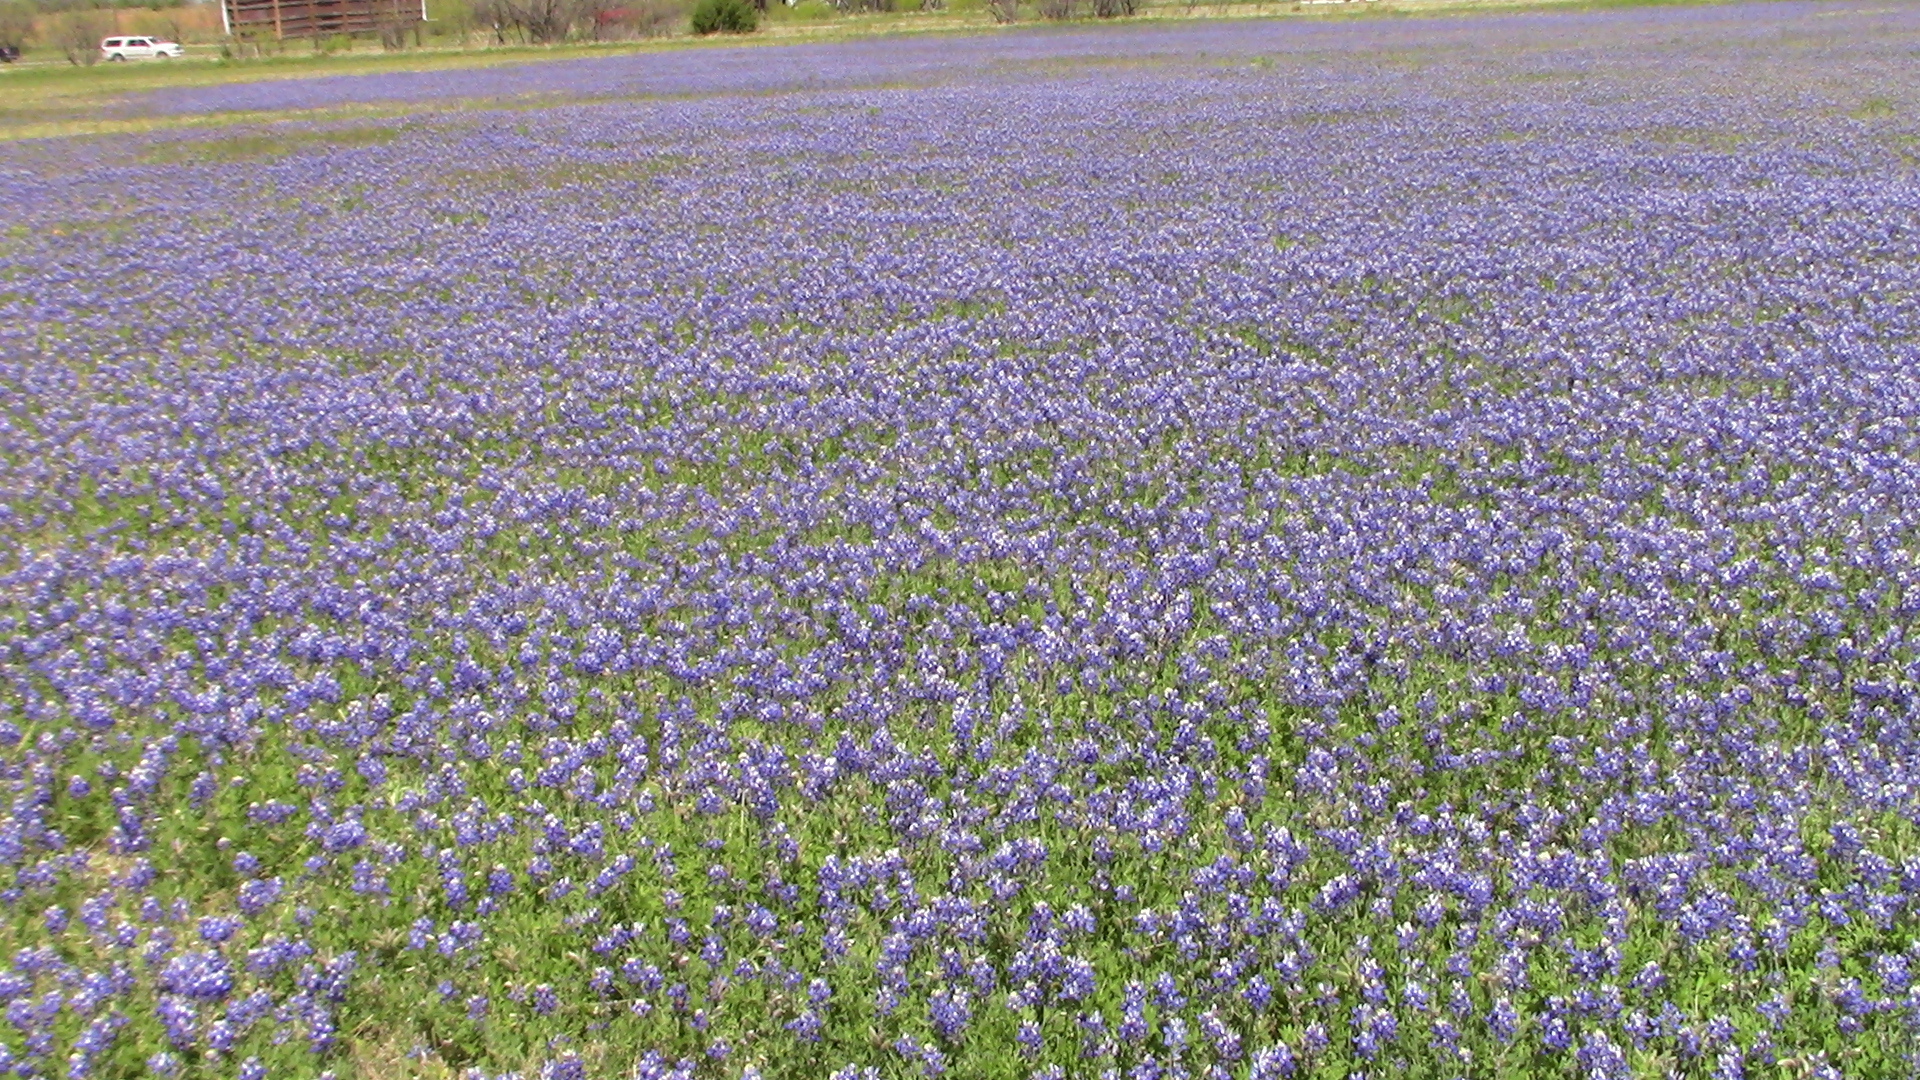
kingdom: Plantae
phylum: Tracheophyta
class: Magnoliopsida
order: Fabales
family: Fabaceae
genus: Lupinus
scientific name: Lupinus texensis
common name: Texas bluebonnet
